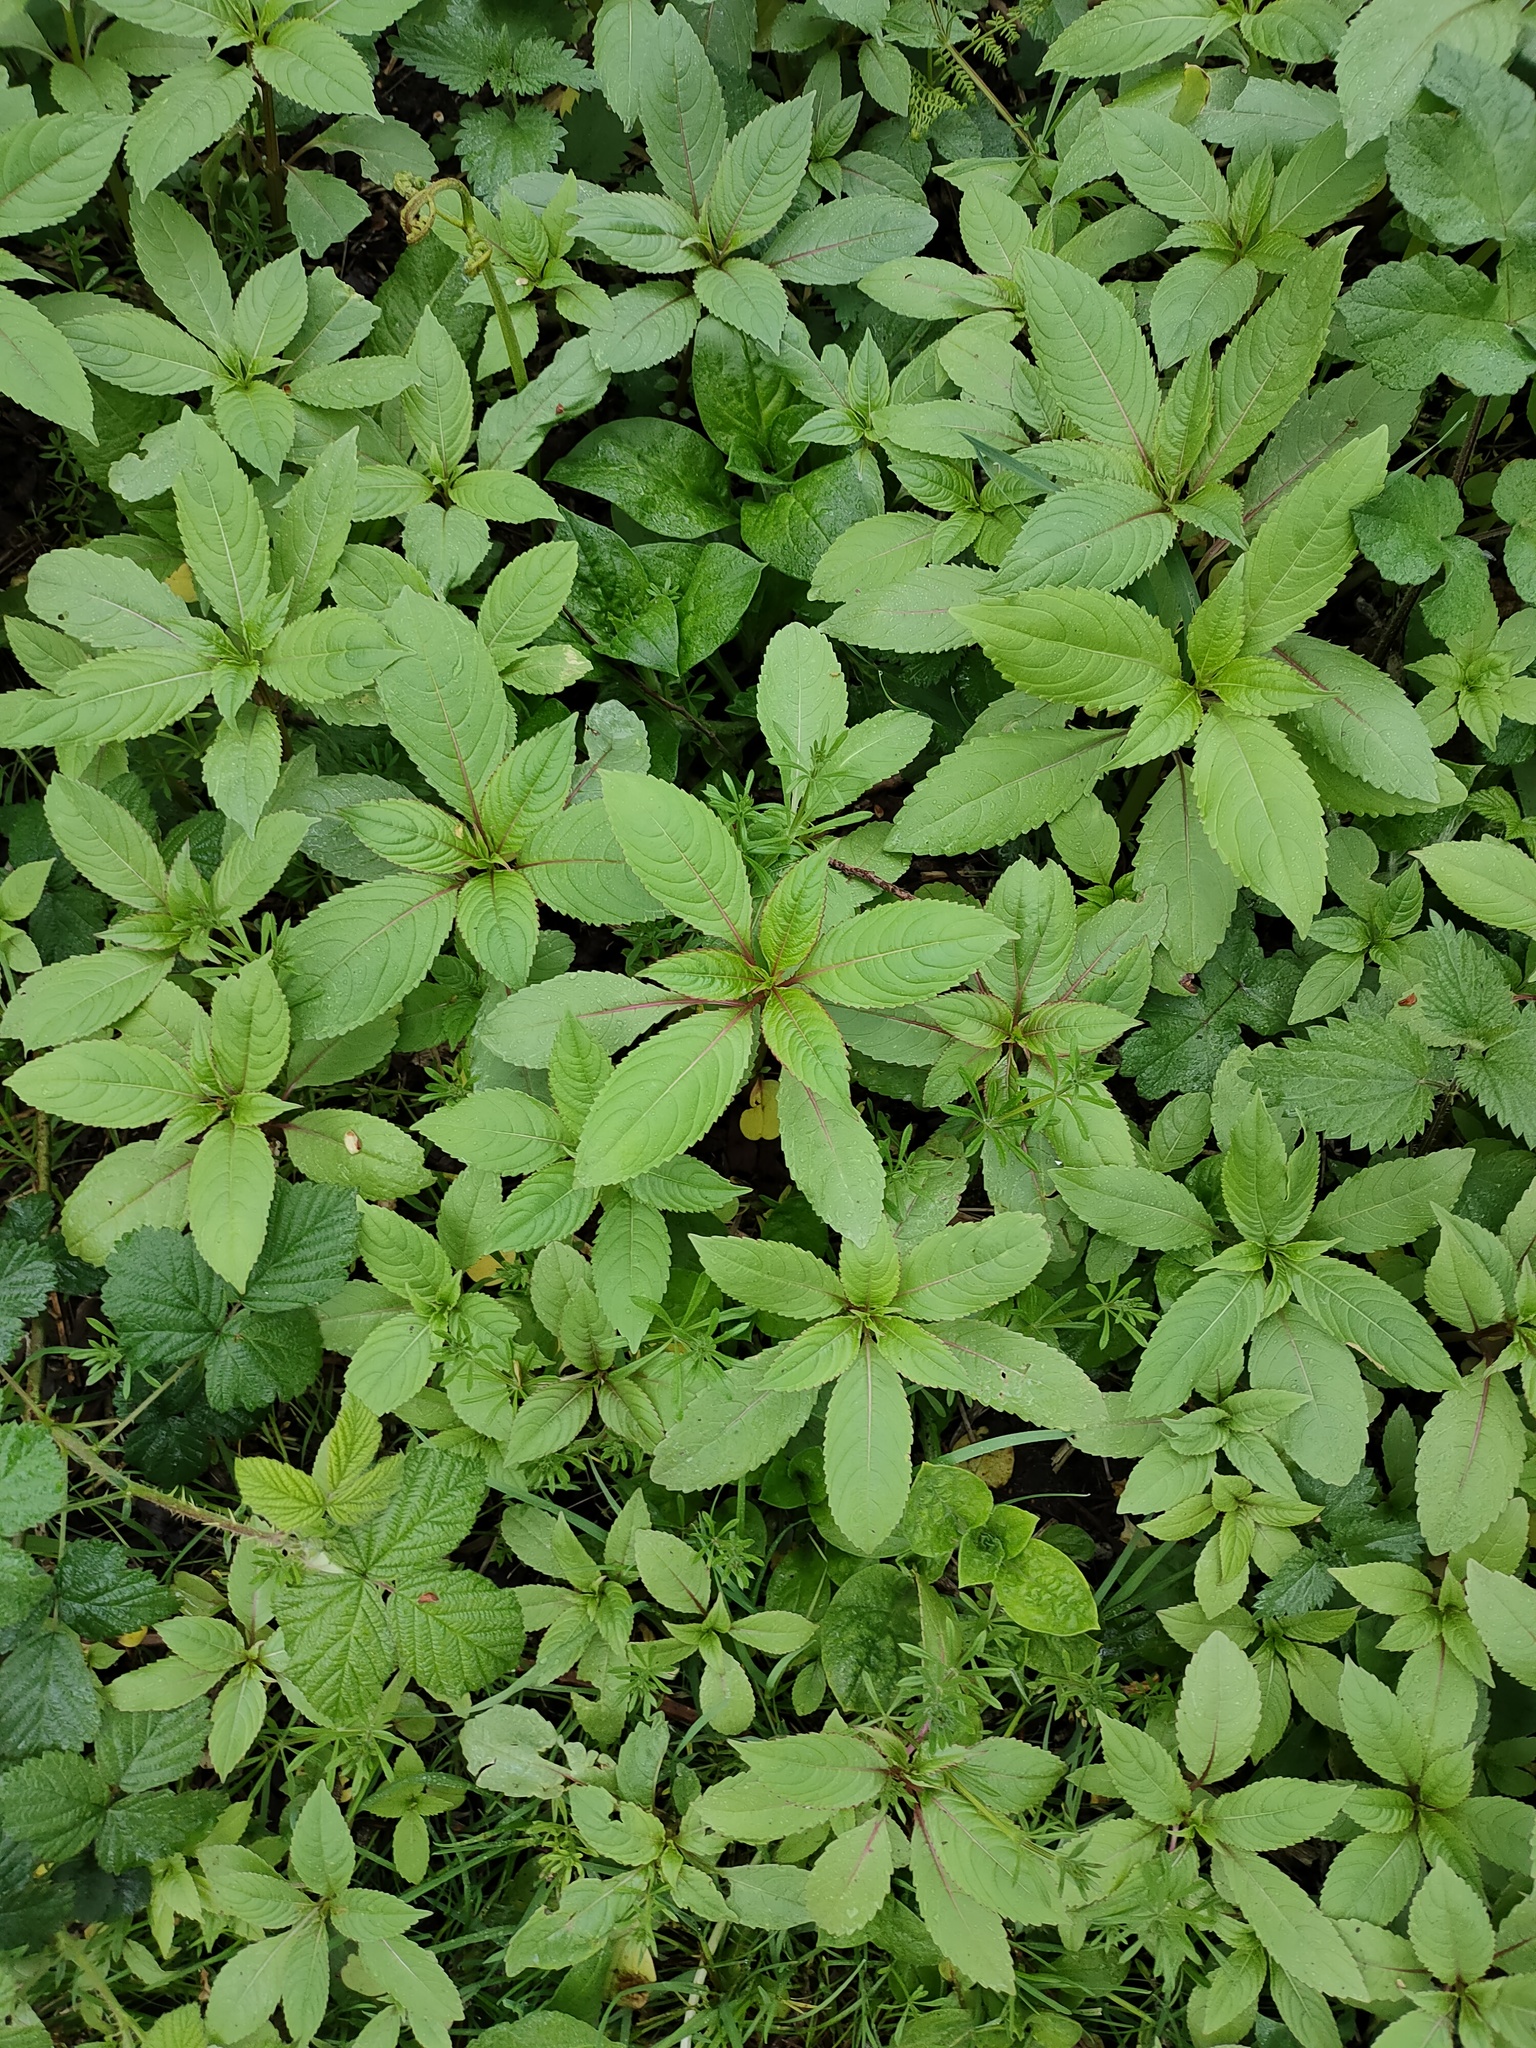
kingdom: Plantae
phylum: Tracheophyta
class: Magnoliopsida
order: Ericales
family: Balsaminaceae
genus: Impatiens
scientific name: Impatiens glandulifera
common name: Himalayan balsam
